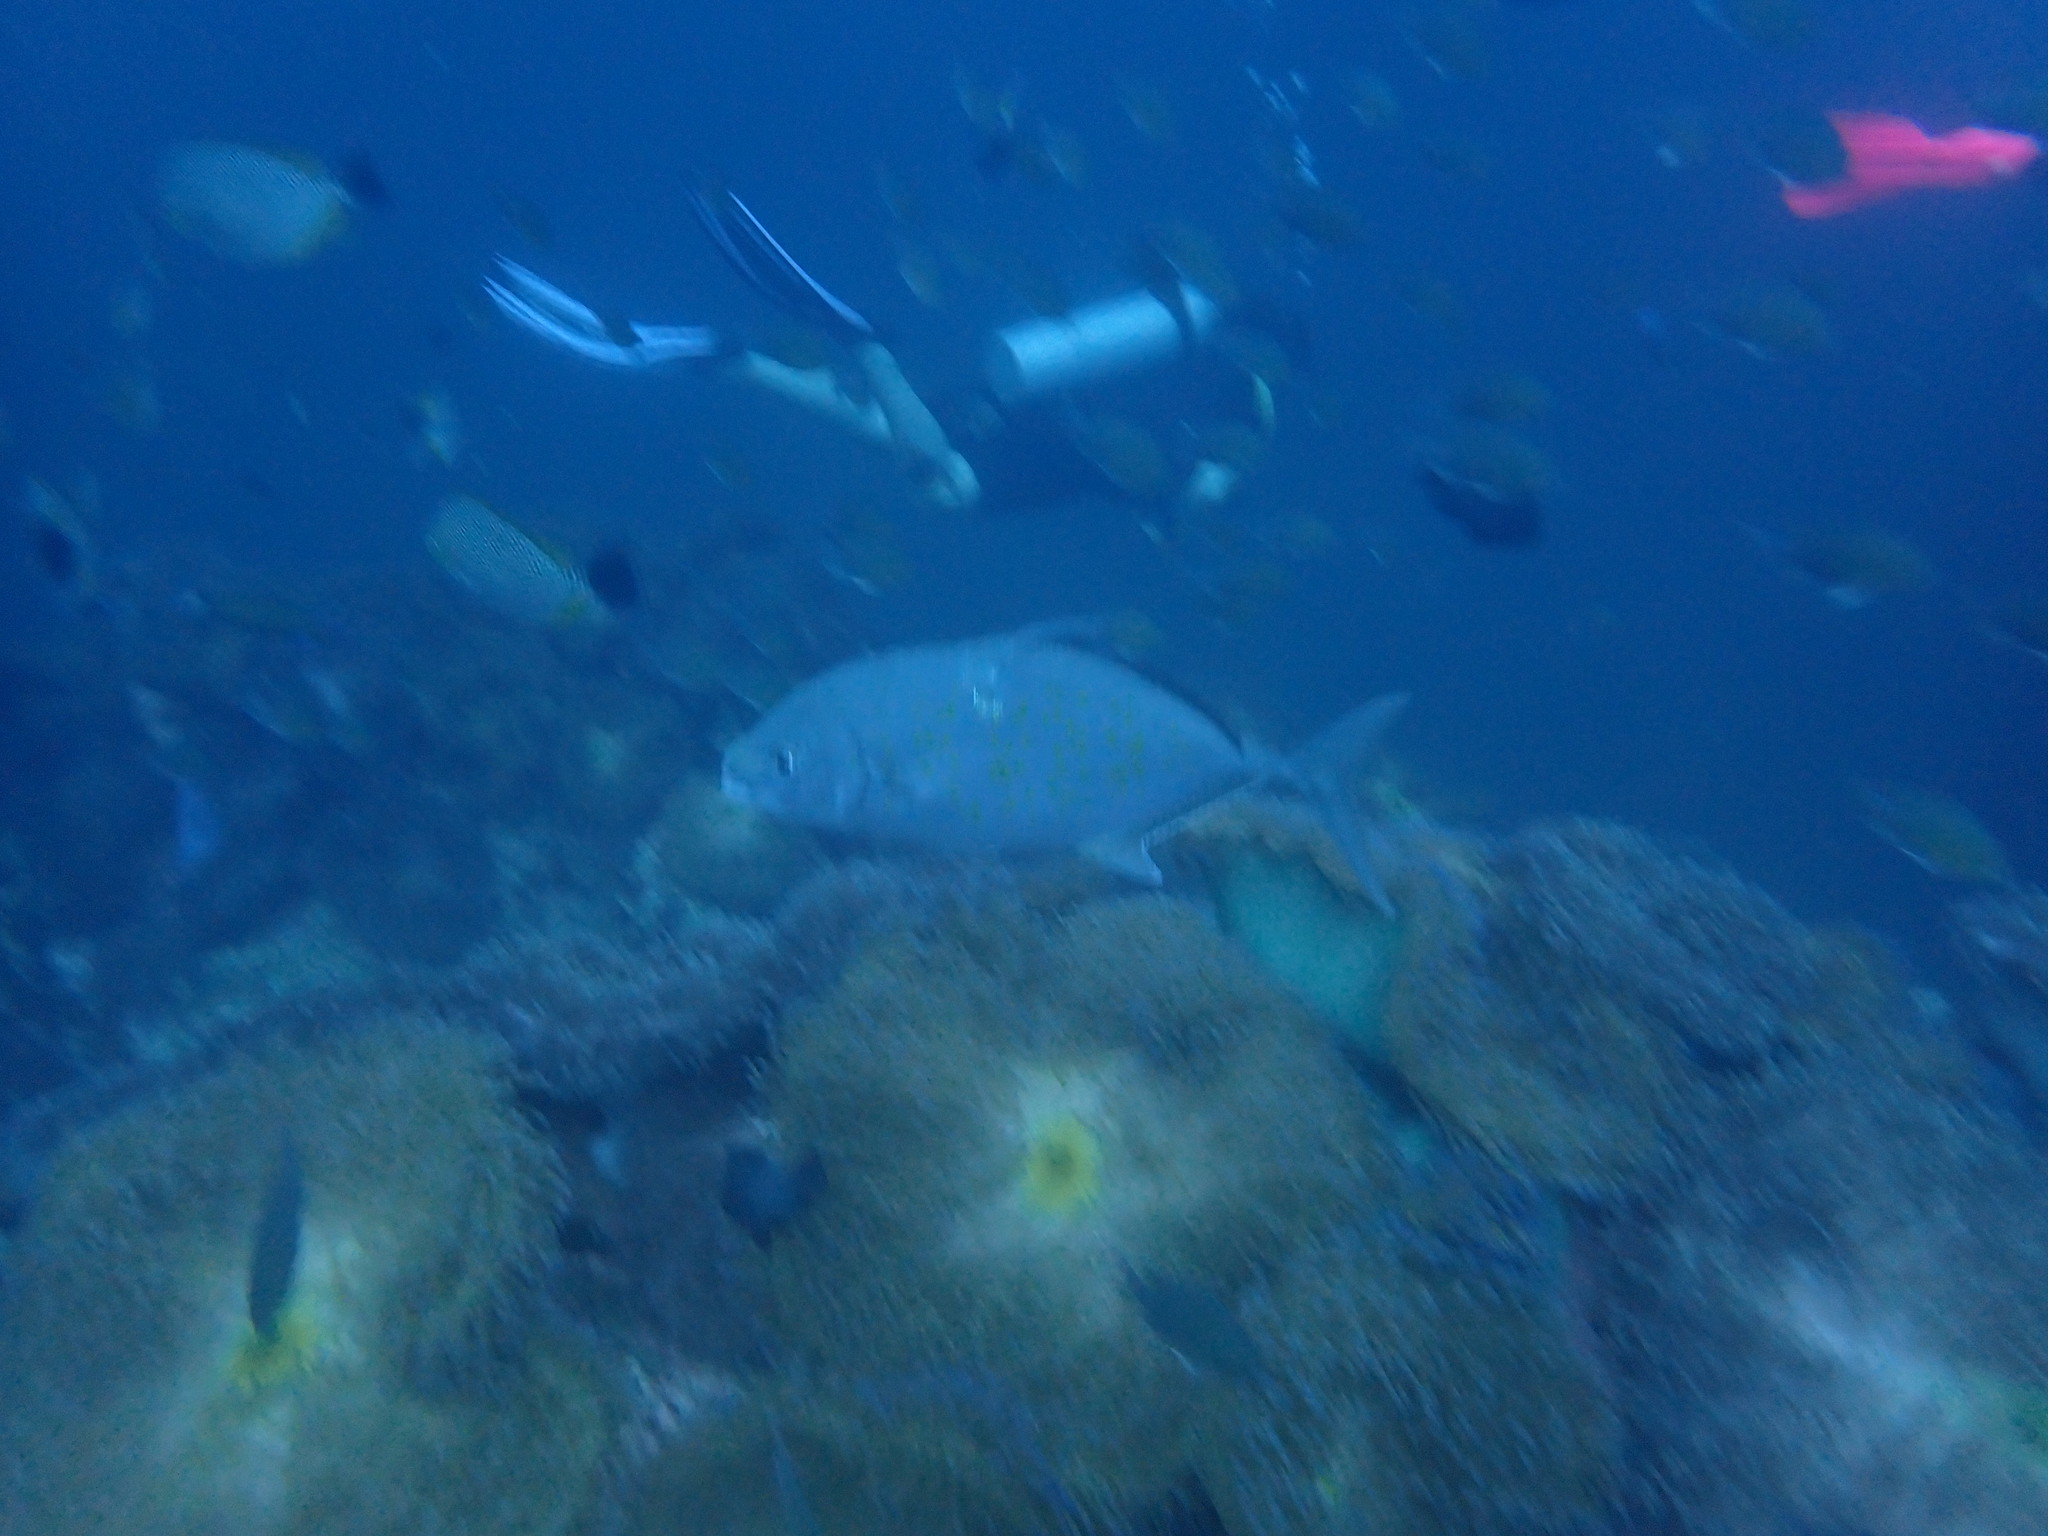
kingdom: Animalia
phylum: Chordata
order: Perciformes
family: Carangidae
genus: Flavocaranx
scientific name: Flavocaranx bajad
